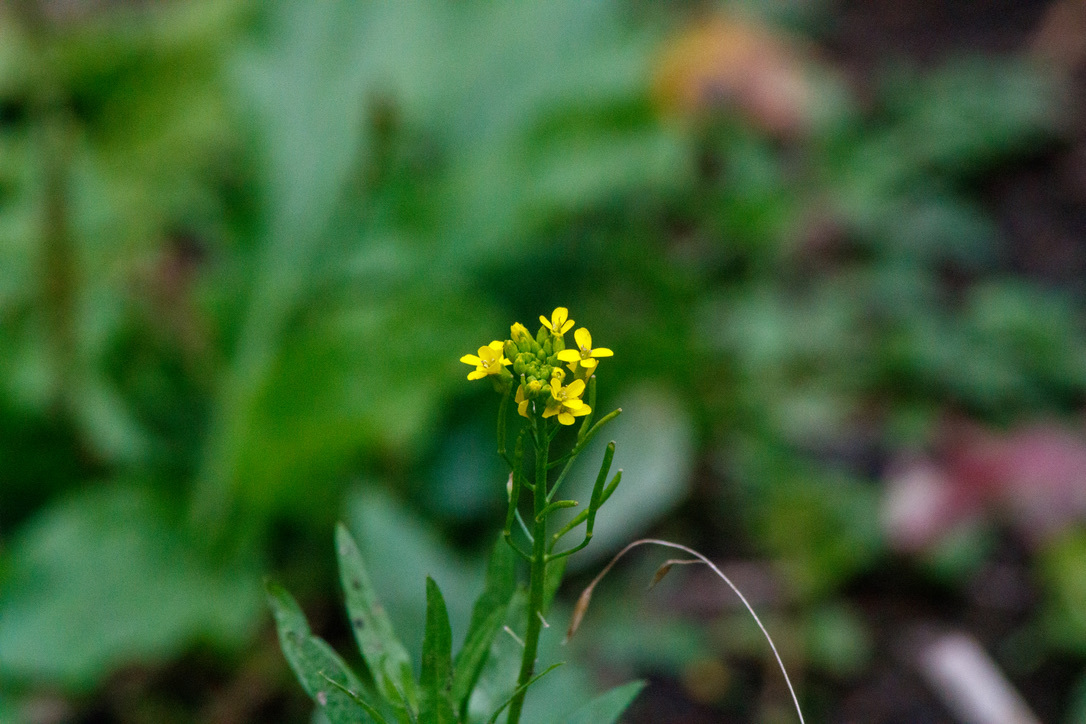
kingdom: Plantae
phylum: Tracheophyta
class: Magnoliopsida
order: Brassicales
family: Brassicaceae
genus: Erysimum
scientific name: Erysimum cheiranthoides
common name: Treacle mustard
